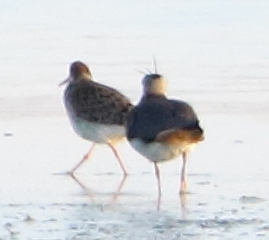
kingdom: Animalia
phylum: Chordata
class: Aves
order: Charadriiformes
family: Scolopacidae
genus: Calidris
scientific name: Calidris pugnax
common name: Ruff
